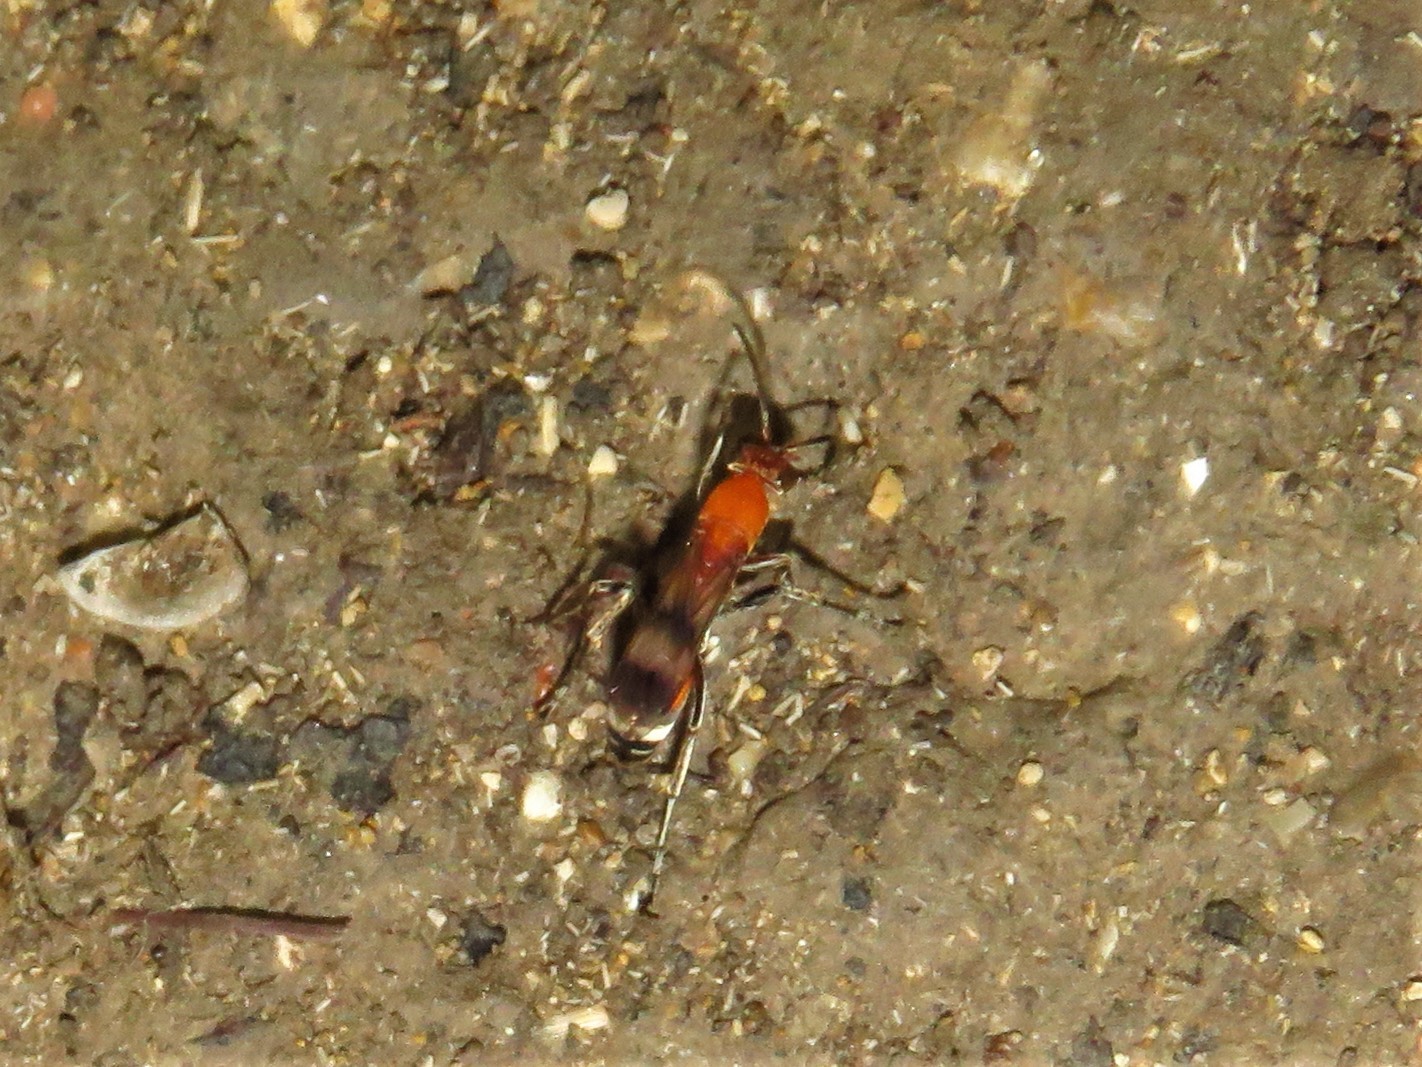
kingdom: Animalia
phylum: Arthropoda
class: Insecta
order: Hymenoptera
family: Pompilidae
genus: Psorthaspis
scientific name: Psorthaspis legata
